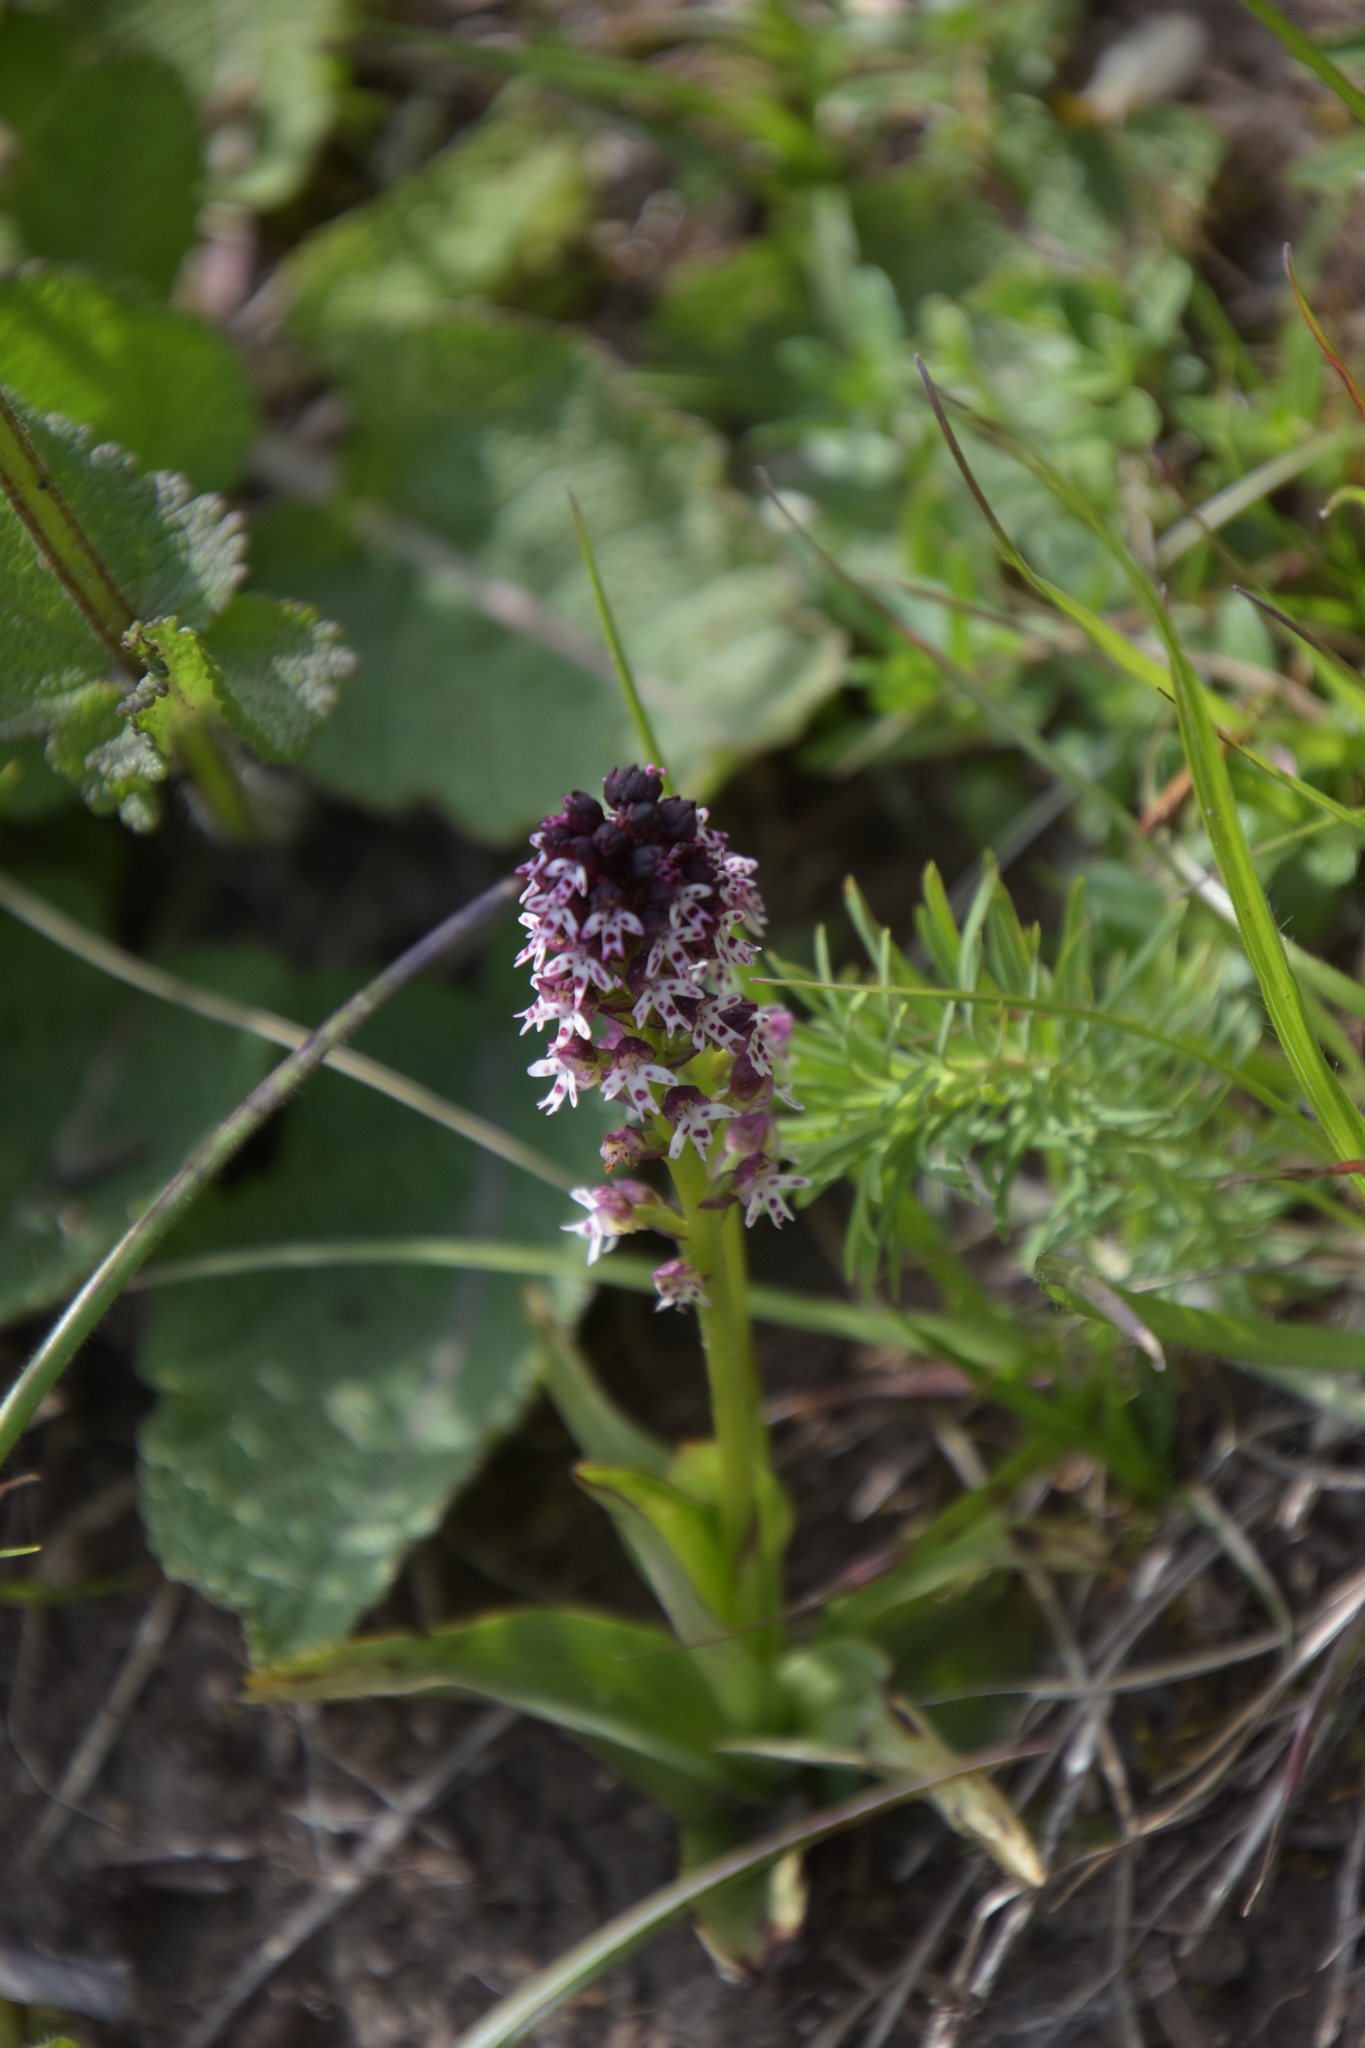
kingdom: Plantae
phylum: Tracheophyta
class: Liliopsida
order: Asparagales
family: Orchidaceae
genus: Neotinea
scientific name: Neotinea ustulata
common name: Burnt orchid
